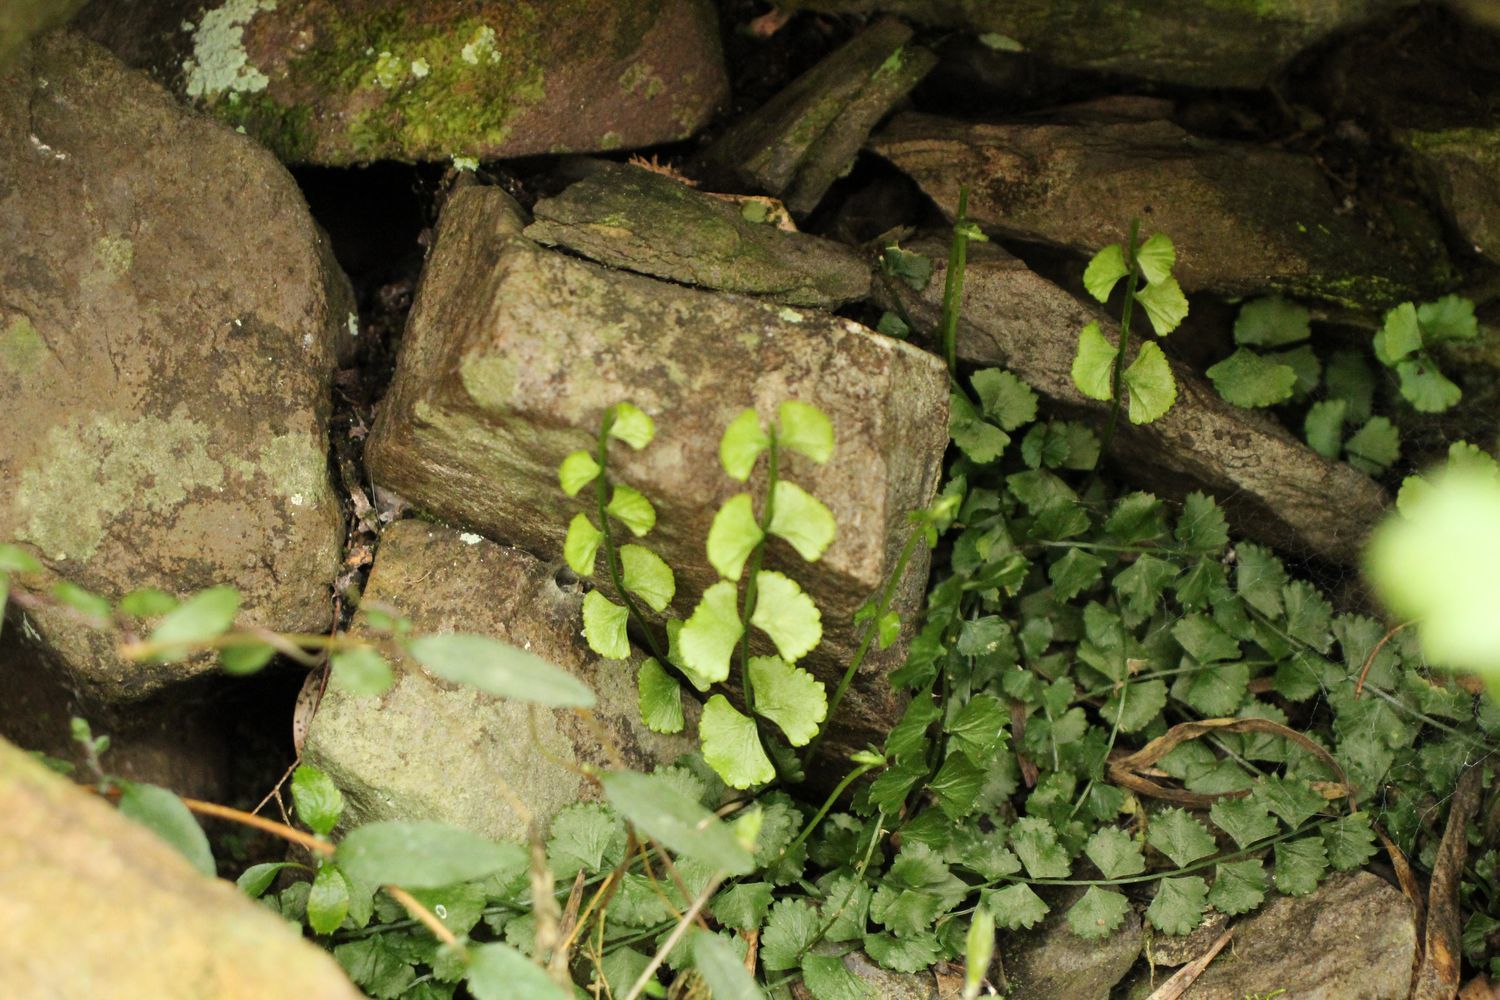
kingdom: Plantae
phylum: Tracheophyta
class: Polypodiopsida
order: Polypodiales
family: Aspleniaceae
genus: Asplenium
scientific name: Asplenium flabellifolium
